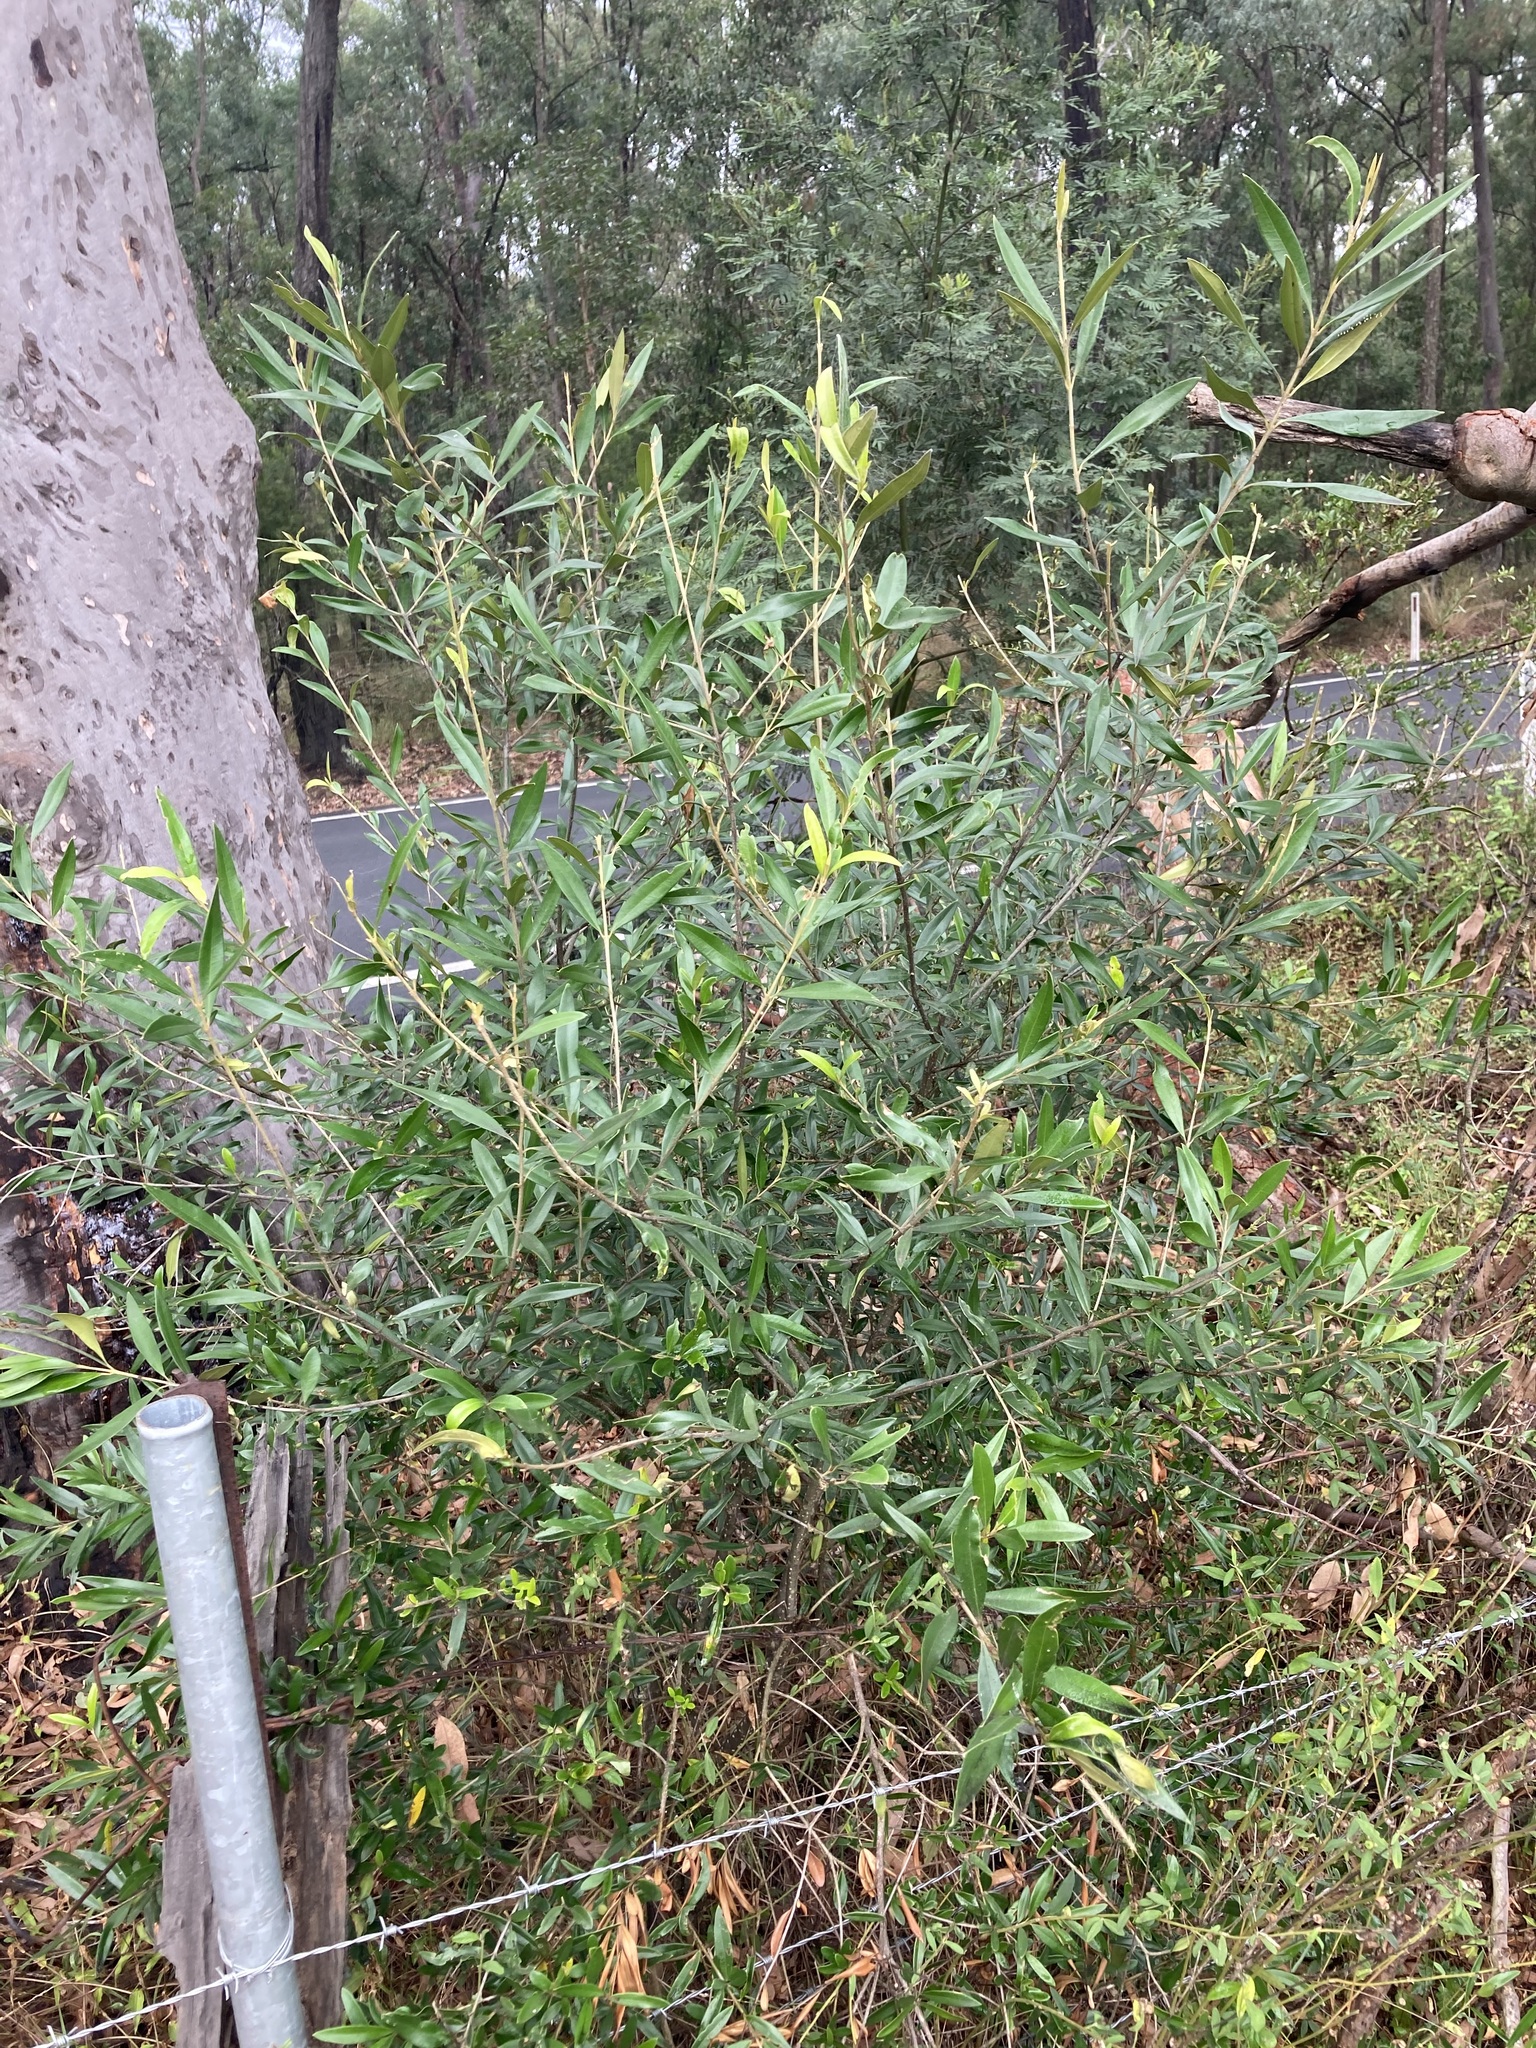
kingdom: Plantae
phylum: Tracheophyta
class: Magnoliopsida
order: Lamiales
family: Oleaceae
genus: Olea
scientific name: Olea europaea
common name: Olive
